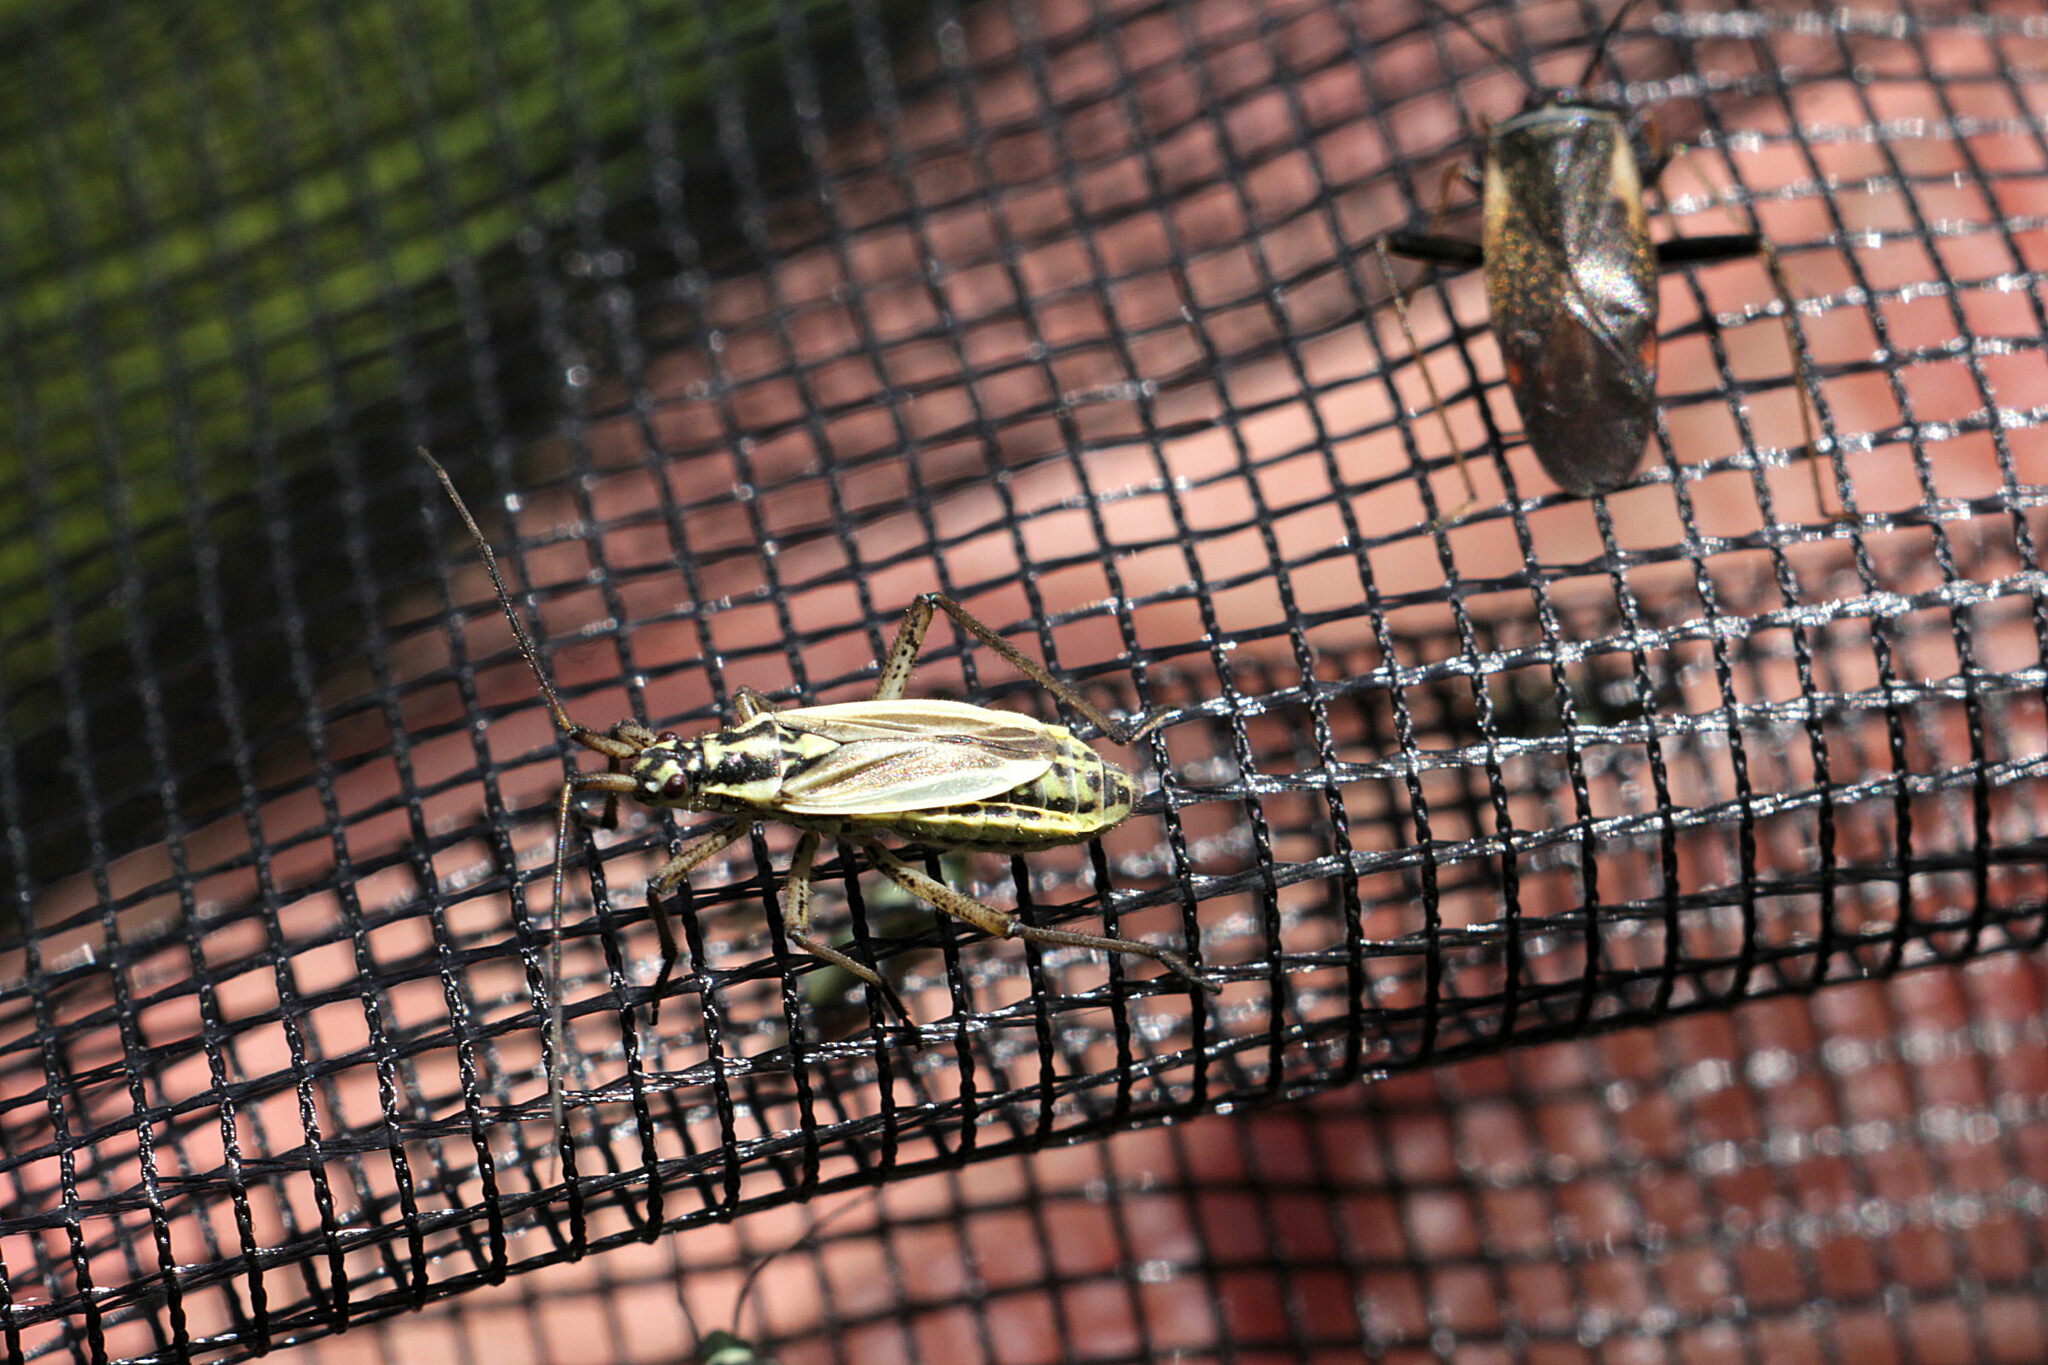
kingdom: Animalia
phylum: Arthropoda
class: Insecta
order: Hemiptera
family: Miridae
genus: Leptopterna
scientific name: Leptopterna dolabrata
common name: Meadow plant bug
